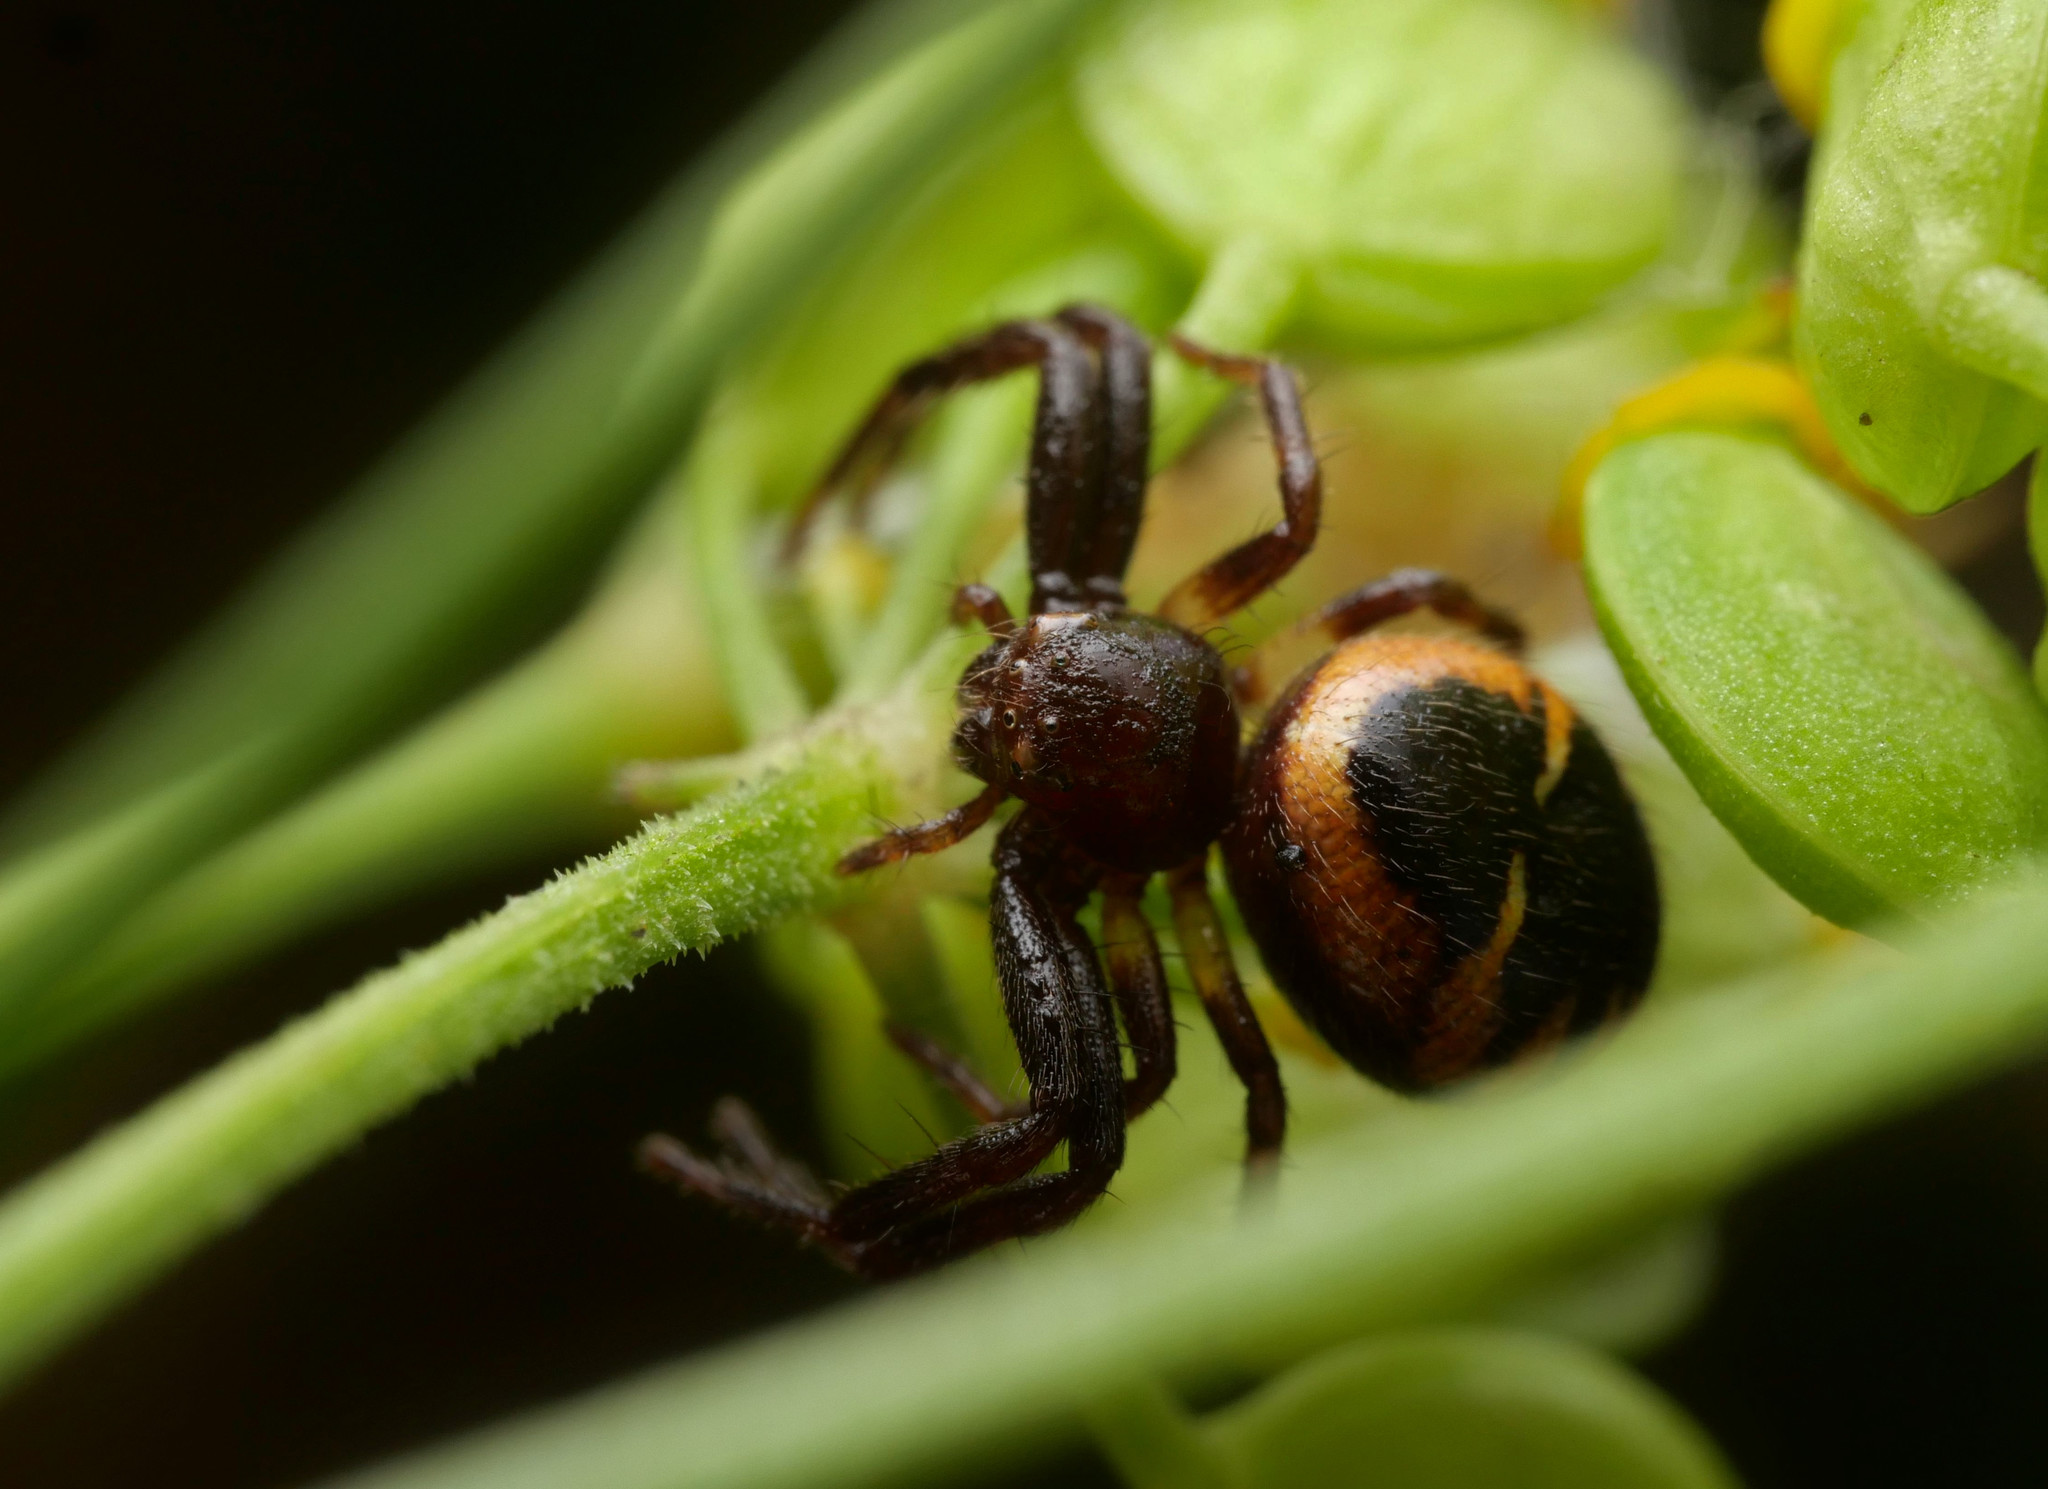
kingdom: Animalia
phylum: Arthropoda
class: Arachnida
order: Araneae
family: Thomisidae
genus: Synema
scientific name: Synema globosum
